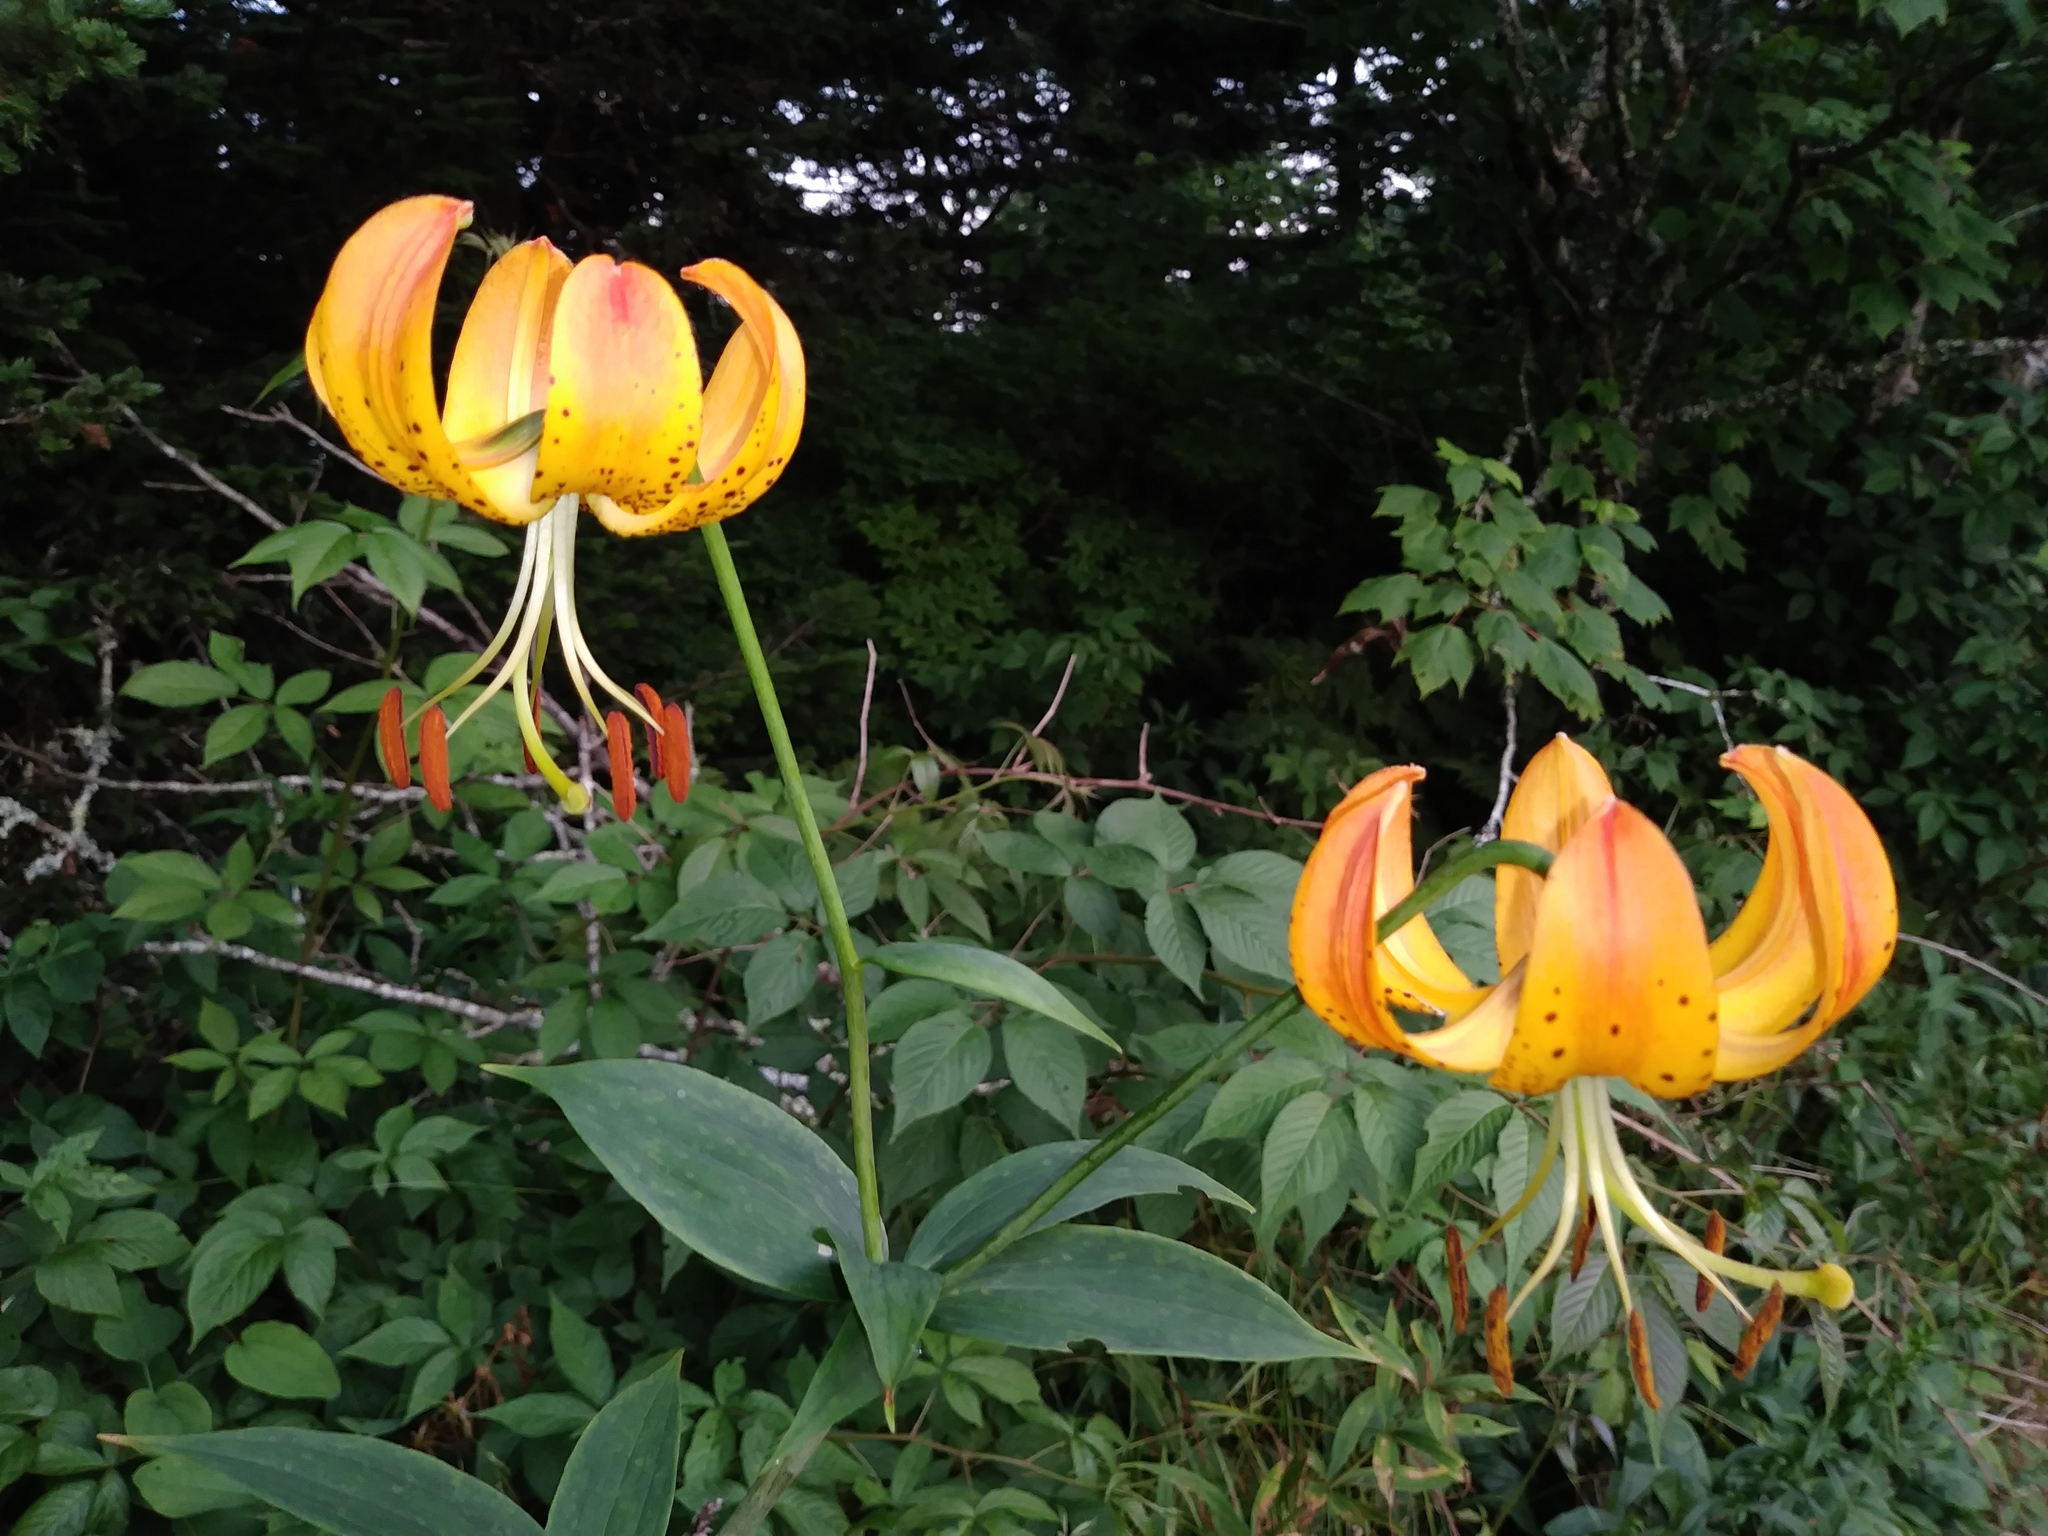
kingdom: Plantae
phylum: Tracheophyta
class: Liliopsida
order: Liliales
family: Liliaceae
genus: Lilium
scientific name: Lilium superbum
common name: American turk's-cap lily
